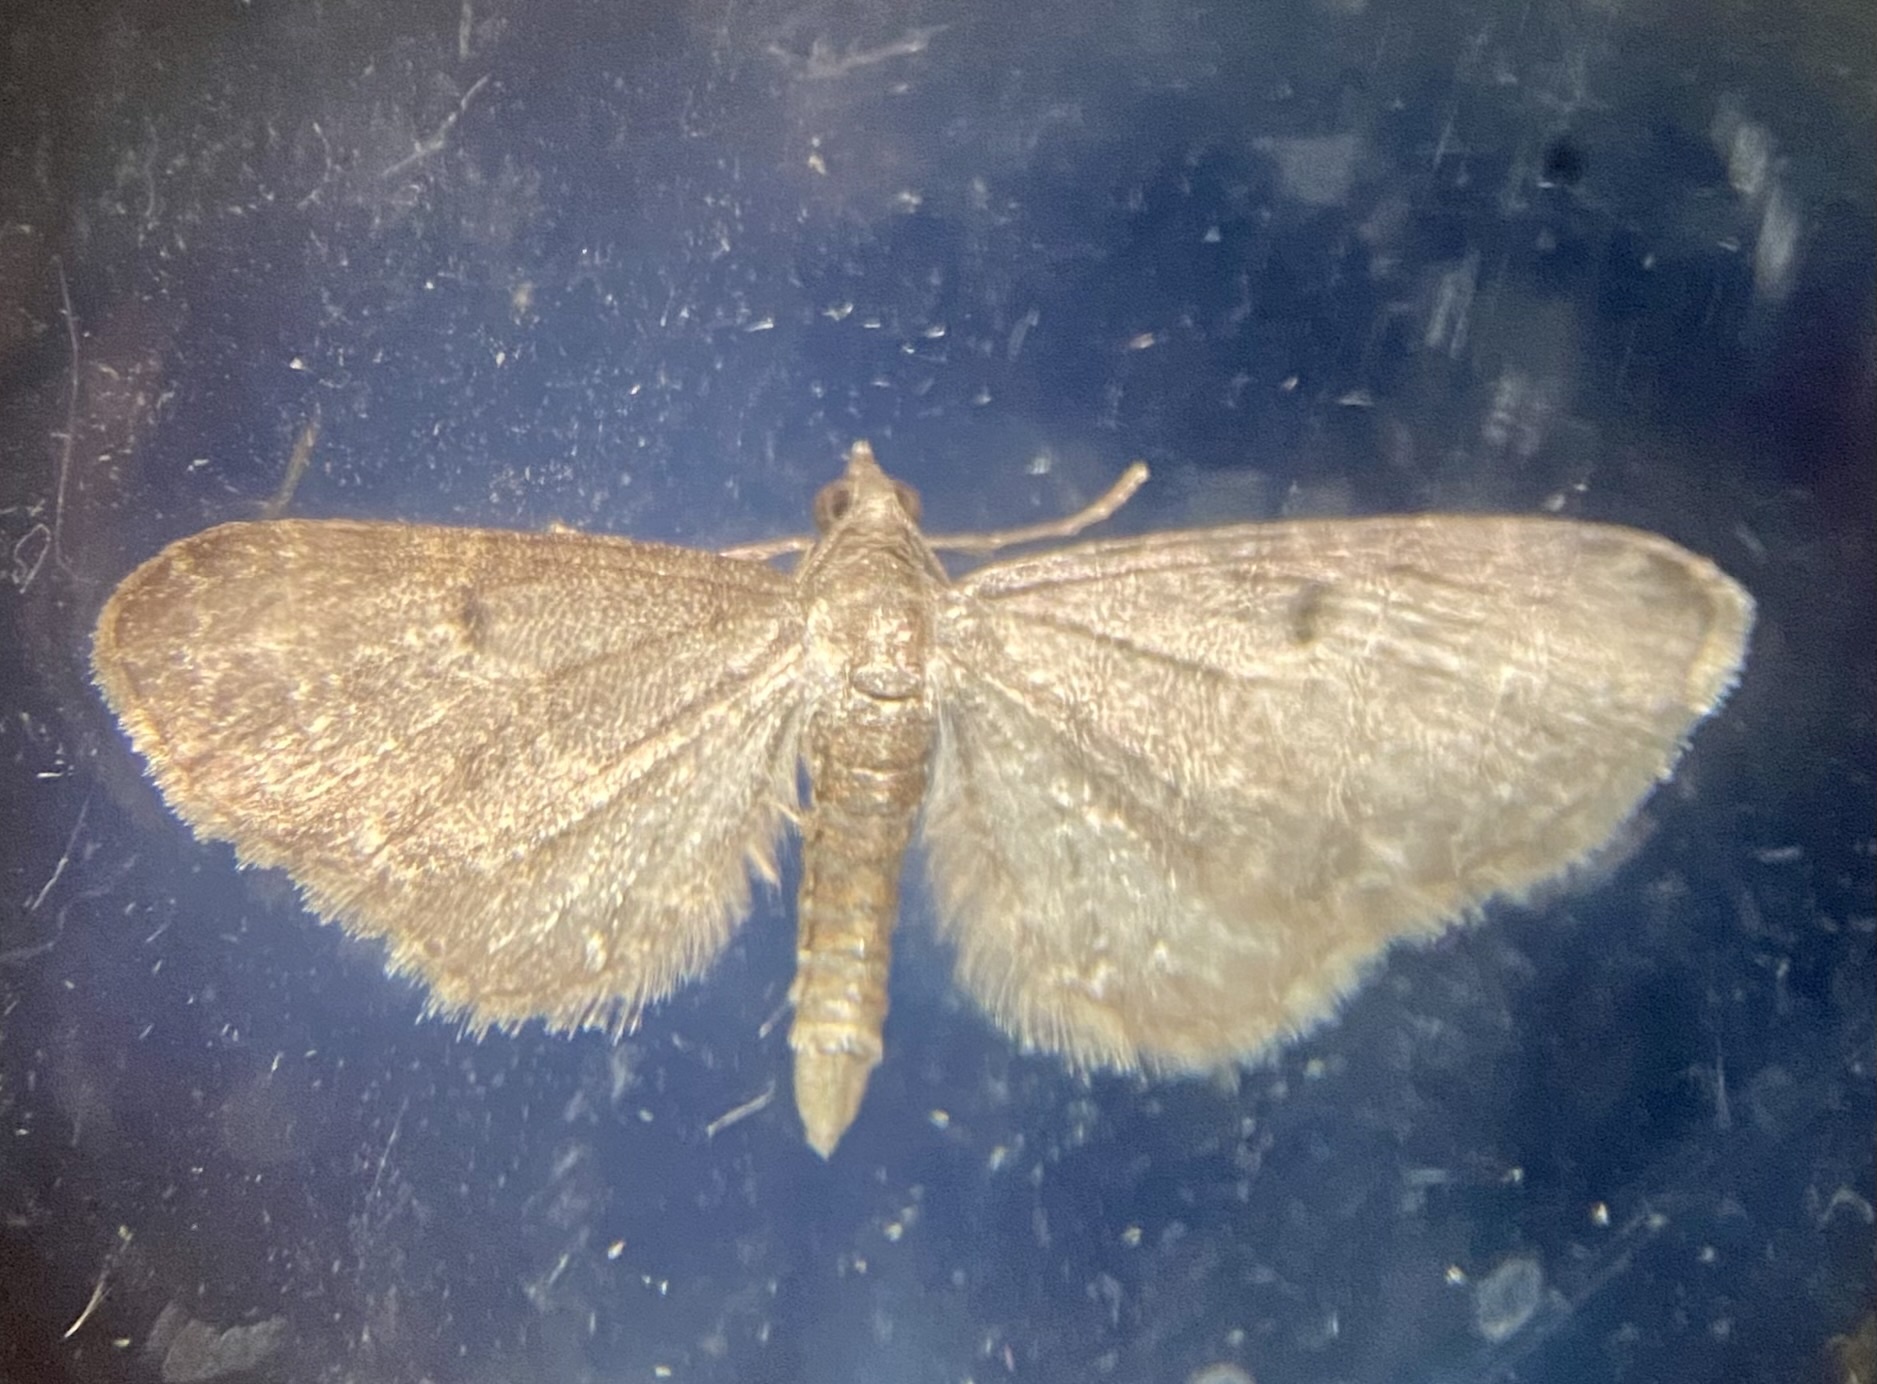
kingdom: Animalia
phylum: Arthropoda
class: Insecta
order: Lepidoptera
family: Geometridae
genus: Eupithecia
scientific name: Eupithecia vulgata
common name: Common pug
